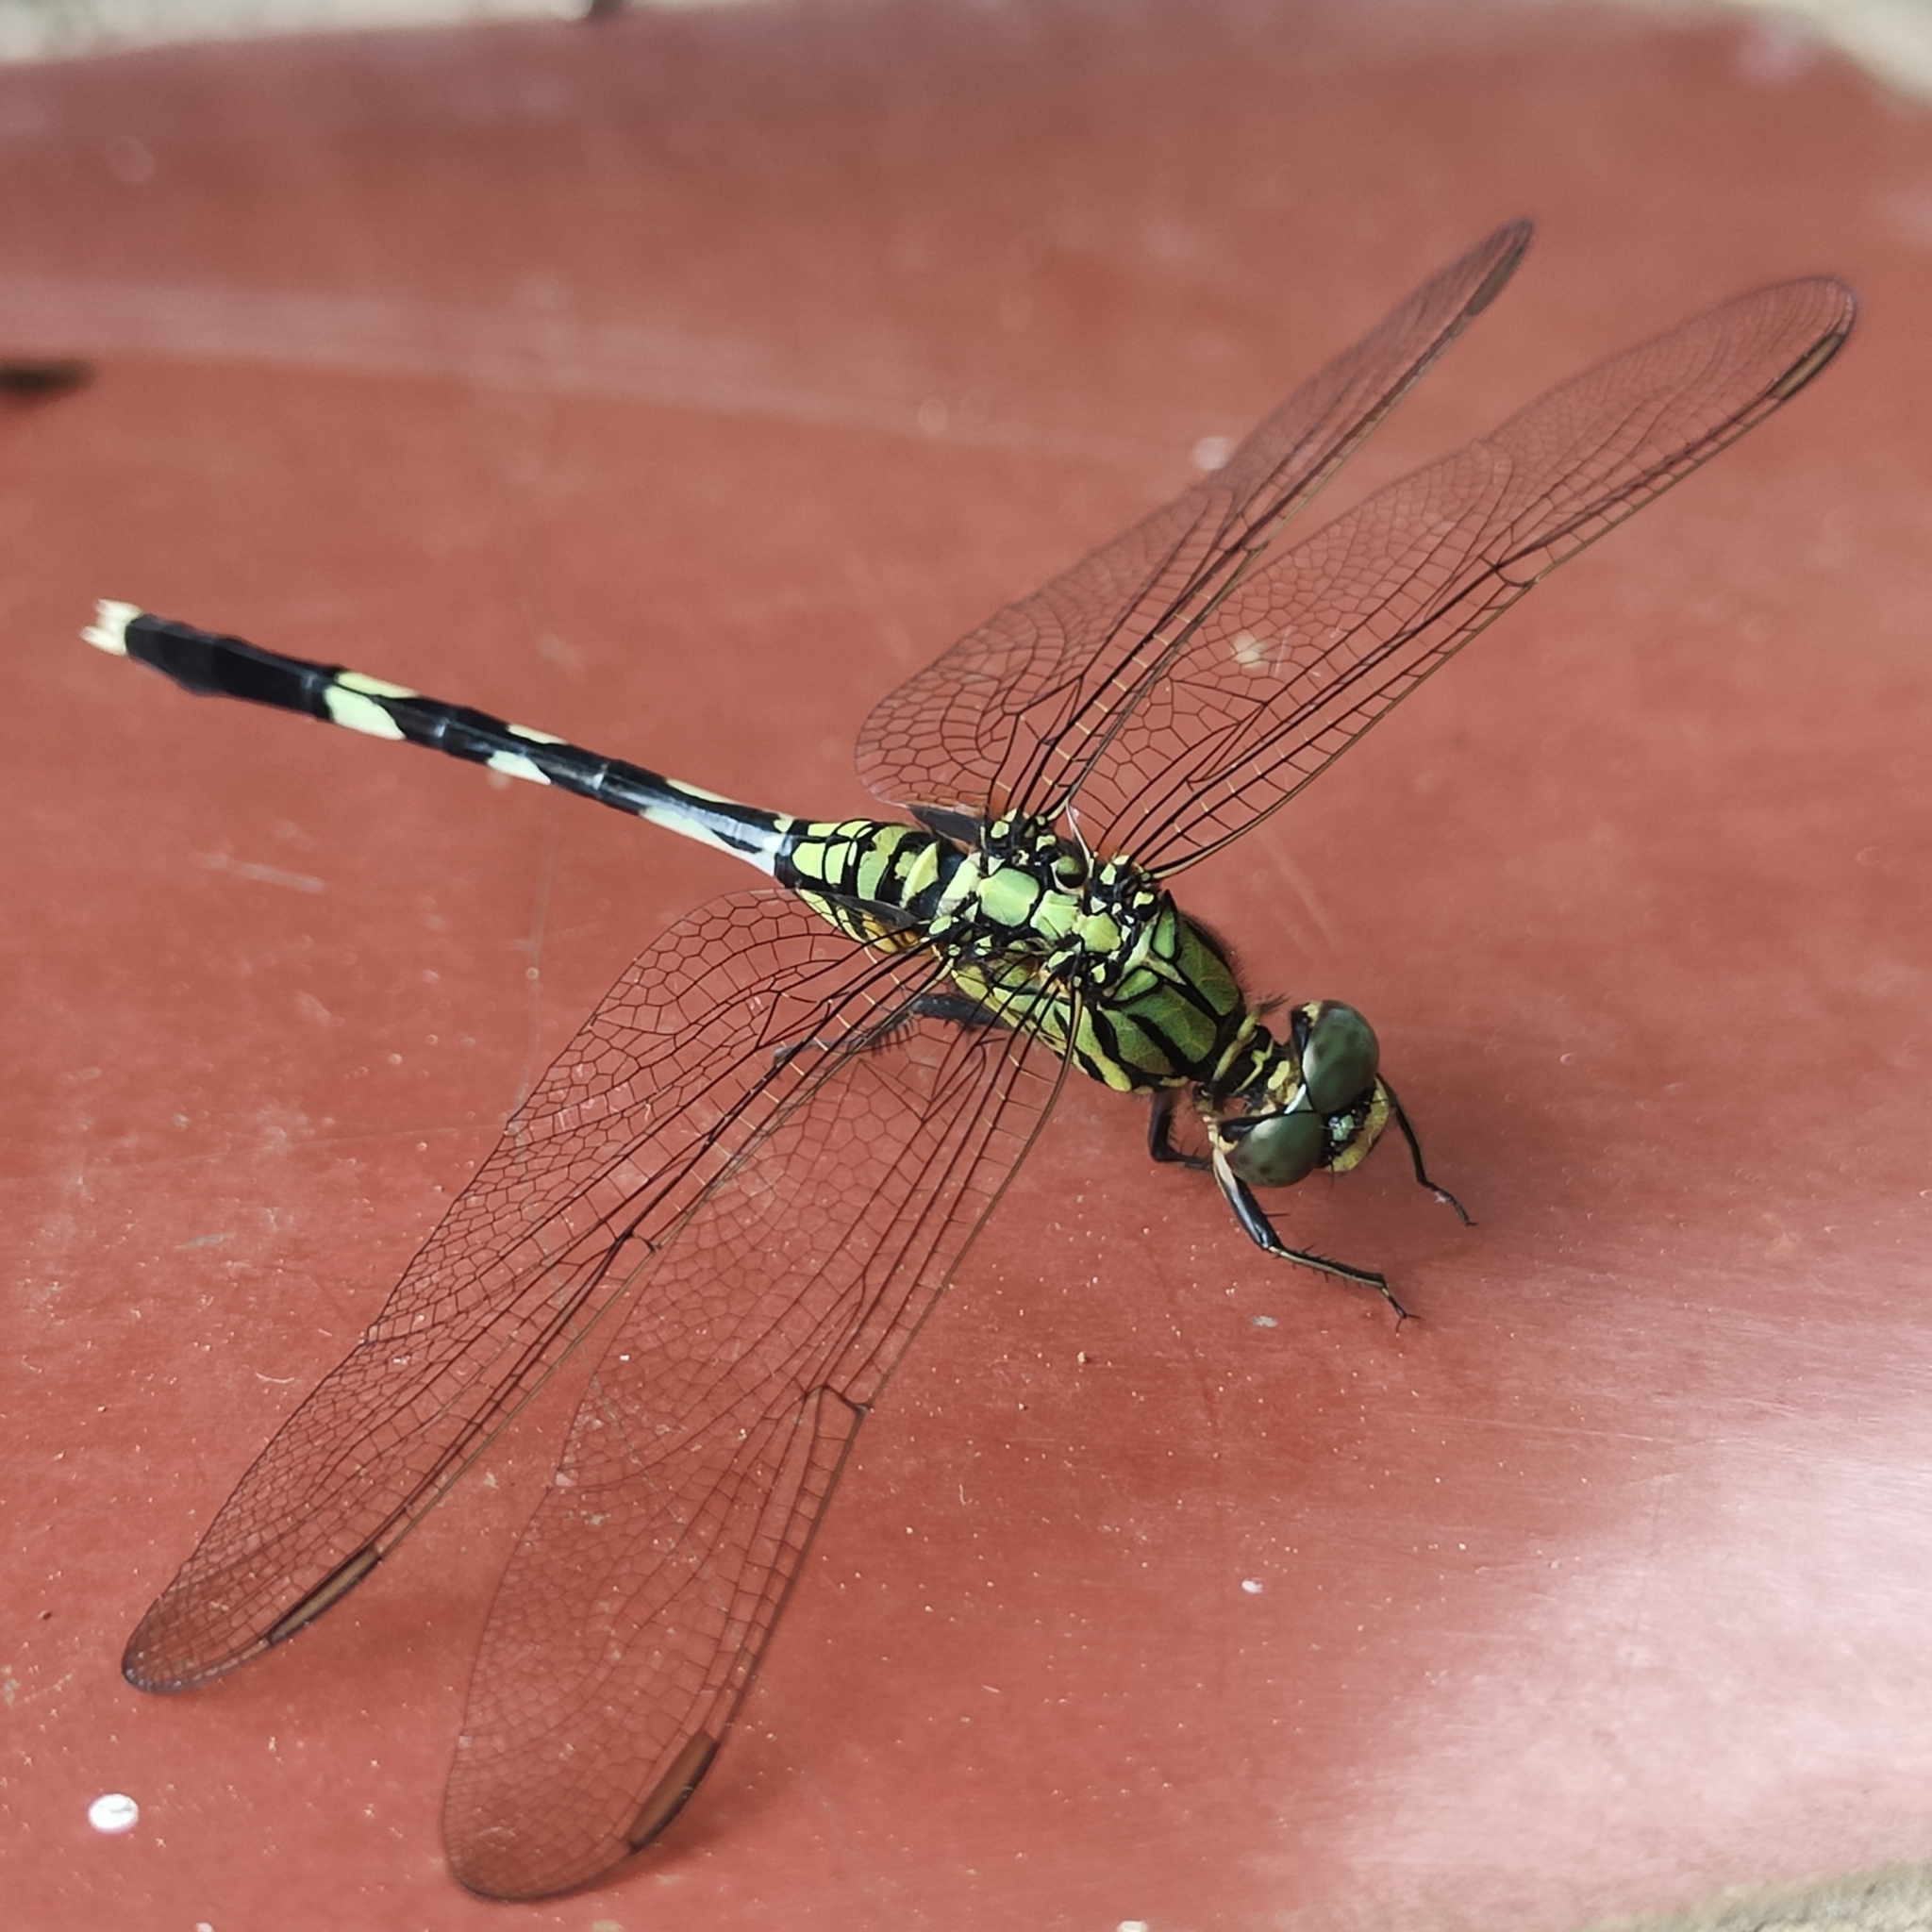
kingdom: Animalia
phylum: Arthropoda
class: Insecta
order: Odonata
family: Libellulidae
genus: Orthetrum
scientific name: Orthetrum sabina
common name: Slender skimmer
